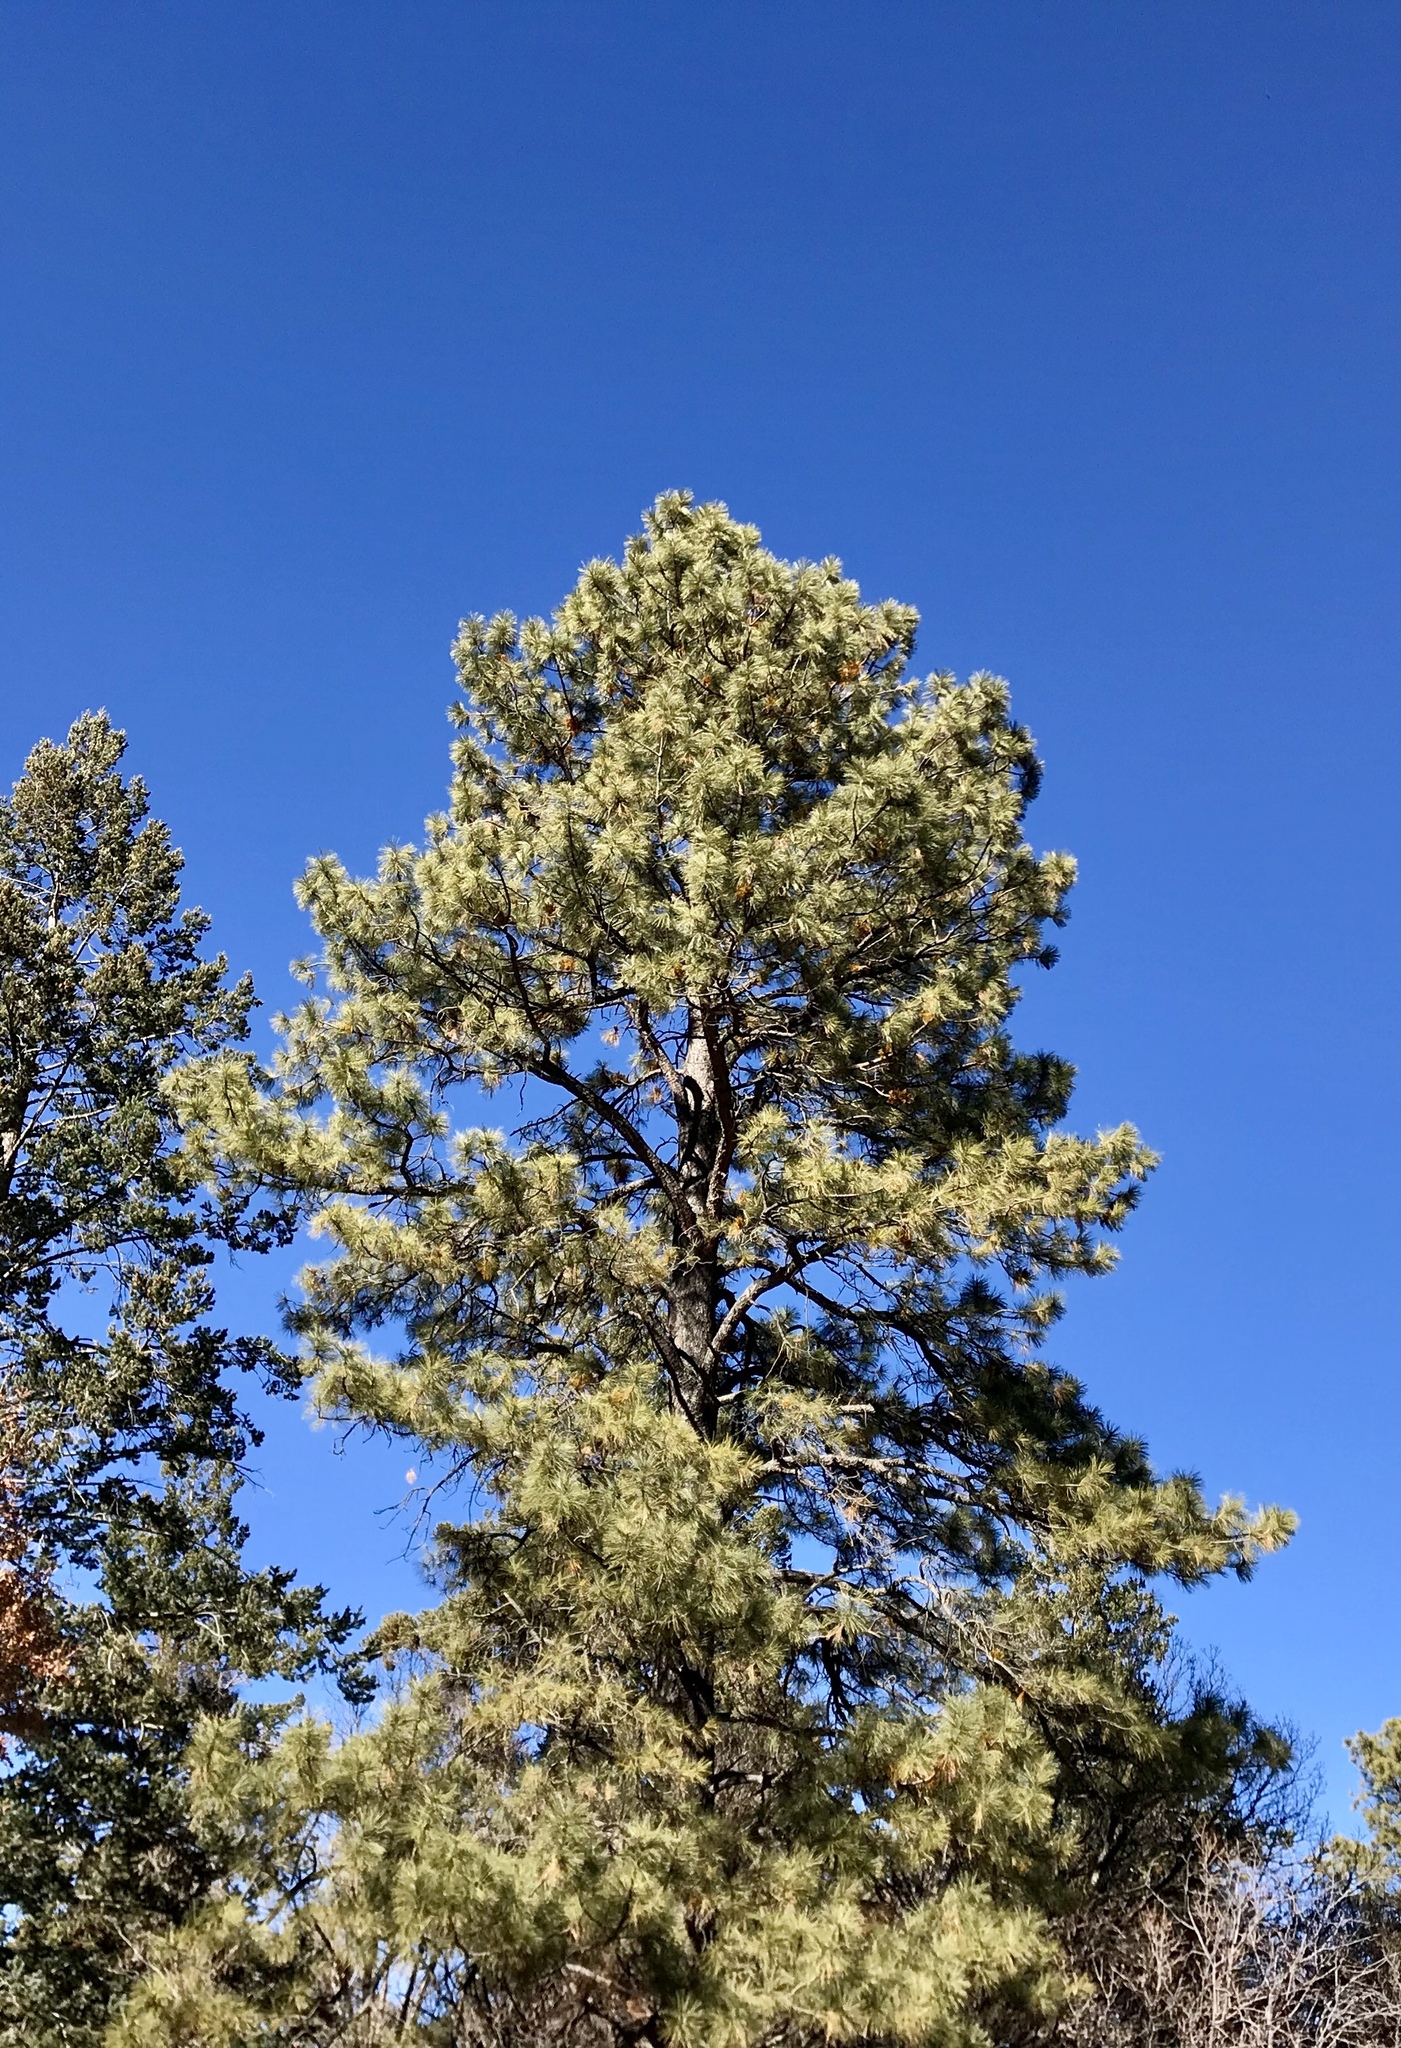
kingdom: Plantae
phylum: Tracheophyta
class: Pinopsida
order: Pinales
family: Pinaceae
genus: Pinus
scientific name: Pinus ponderosa
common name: Western yellow-pine
